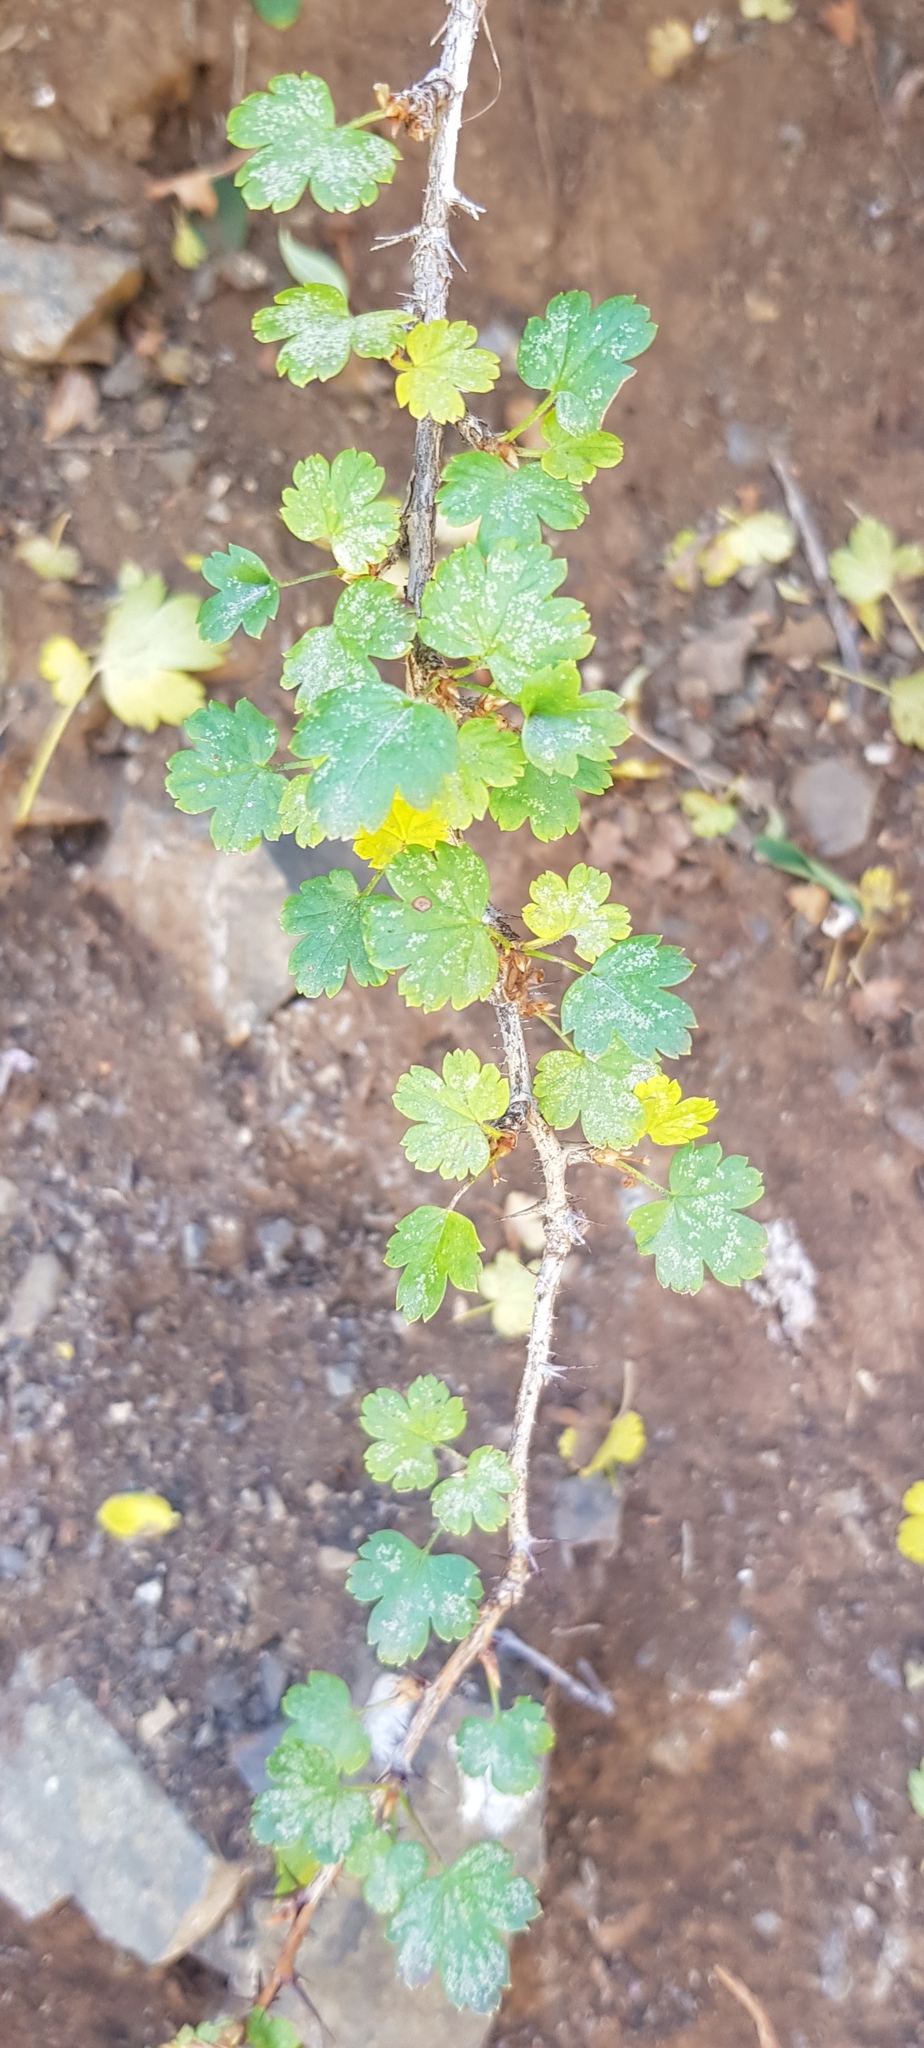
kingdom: Plantae
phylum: Tracheophyta
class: Magnoliopsida
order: Saxifragales
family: Grossulariaceae
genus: Ribes
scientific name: Ribes aciculare
